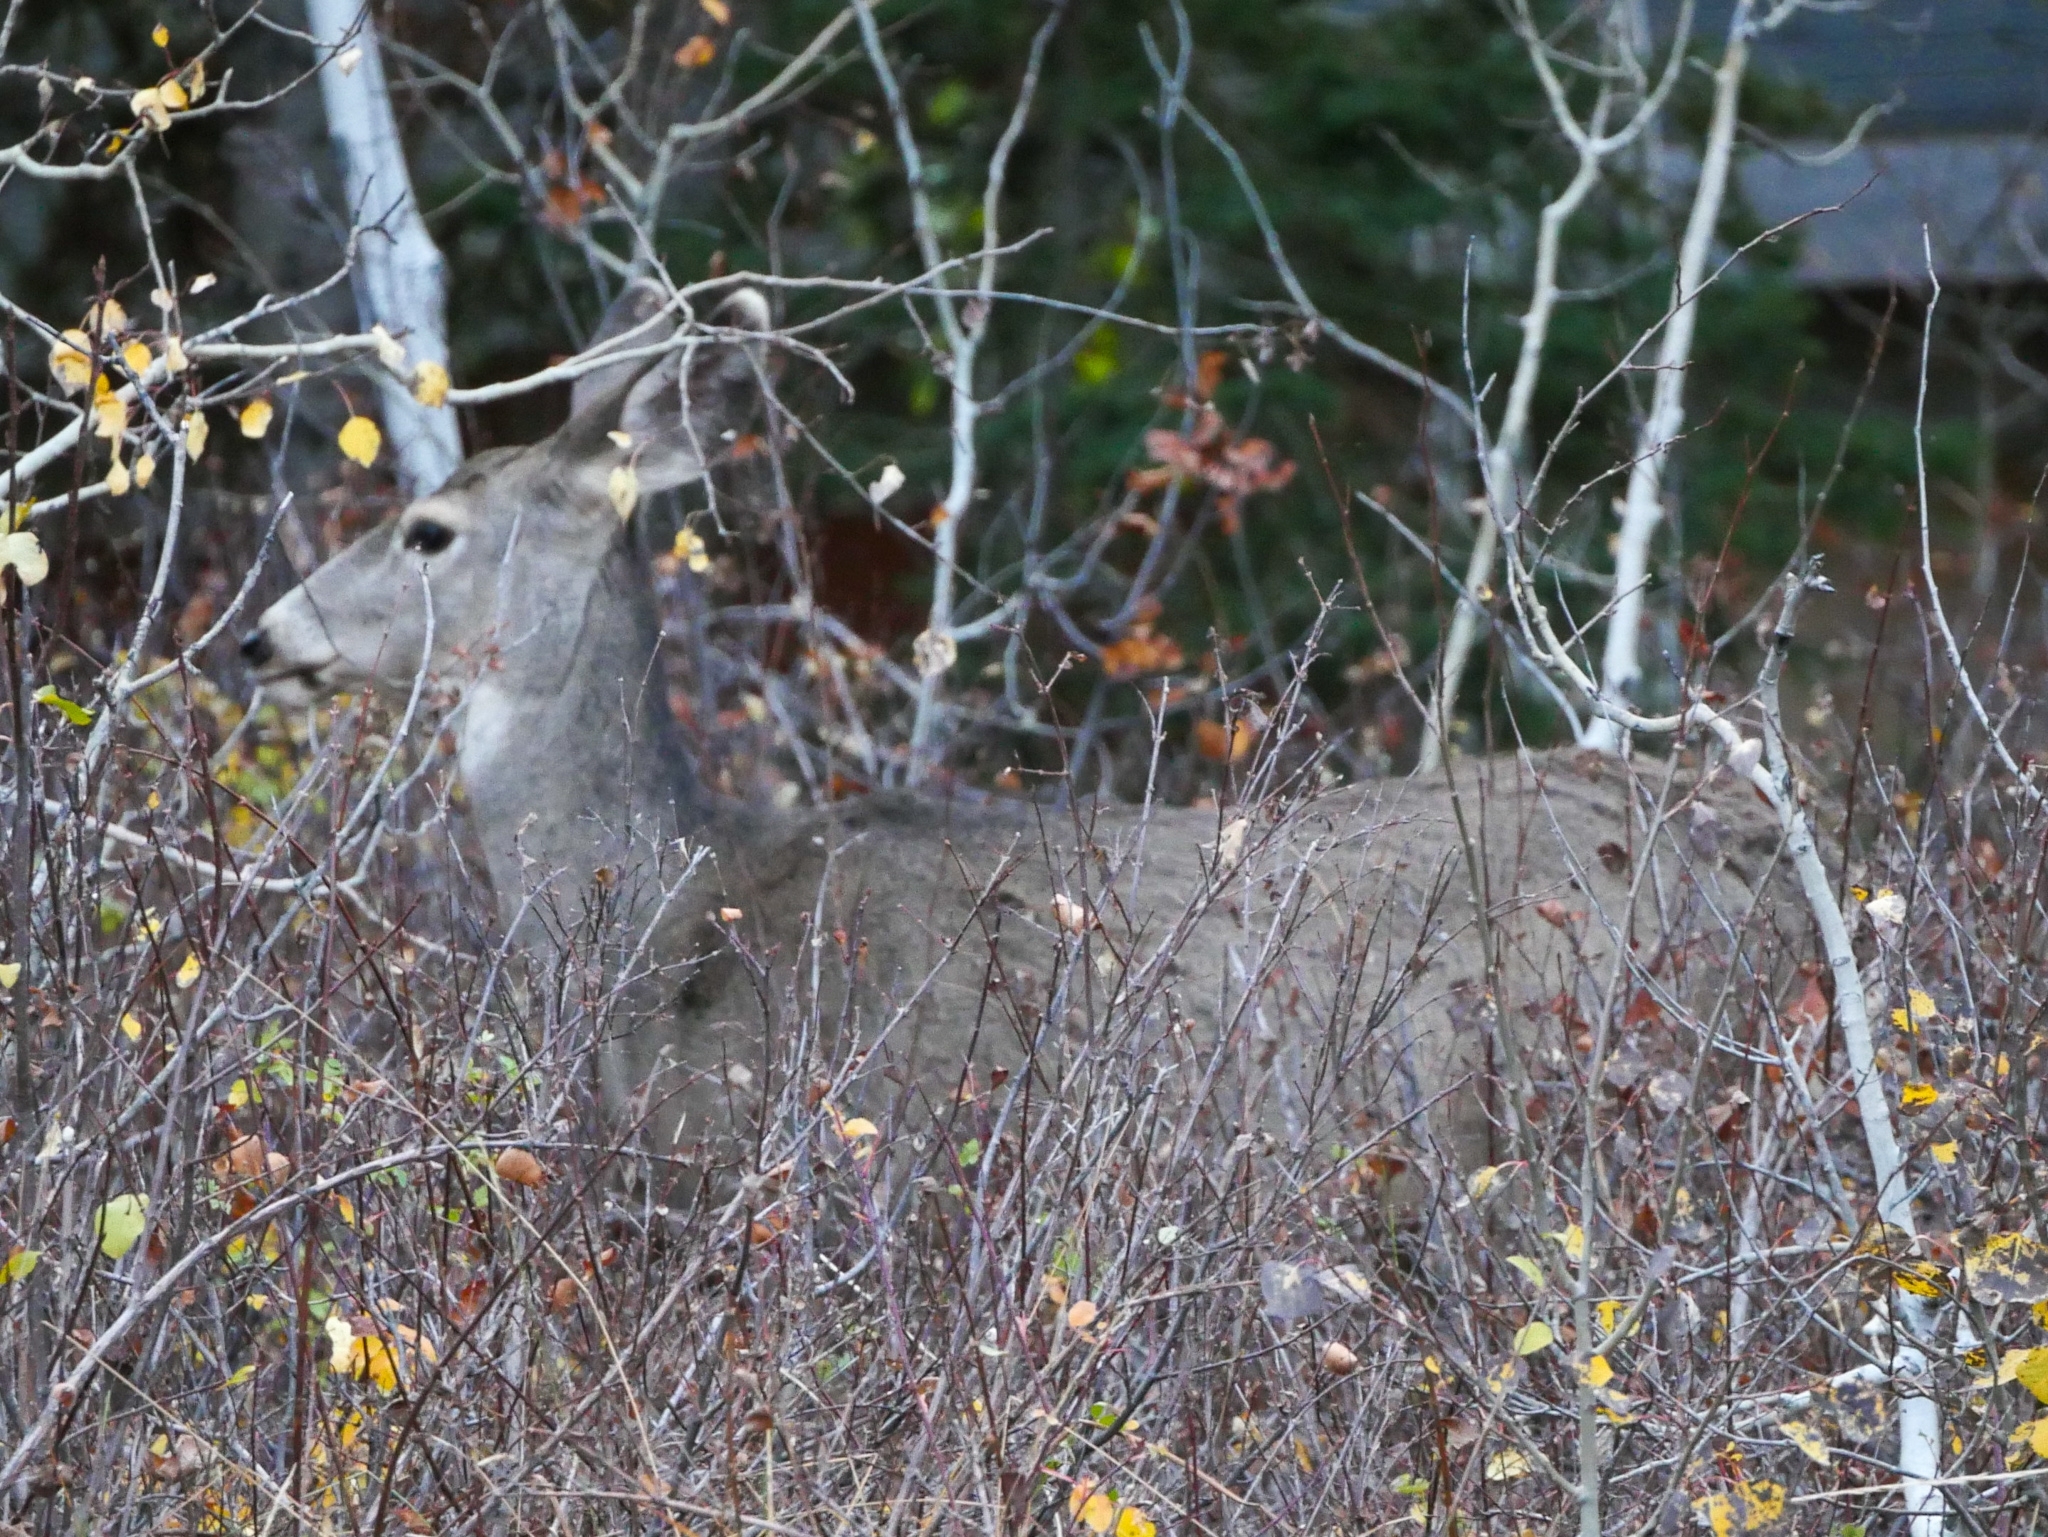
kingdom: Animalia
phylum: Chordata
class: Mammalia
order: Artiodactyla
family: Cervidae
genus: Odocoileus
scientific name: Odocoileus hemionus
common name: Mule deer
